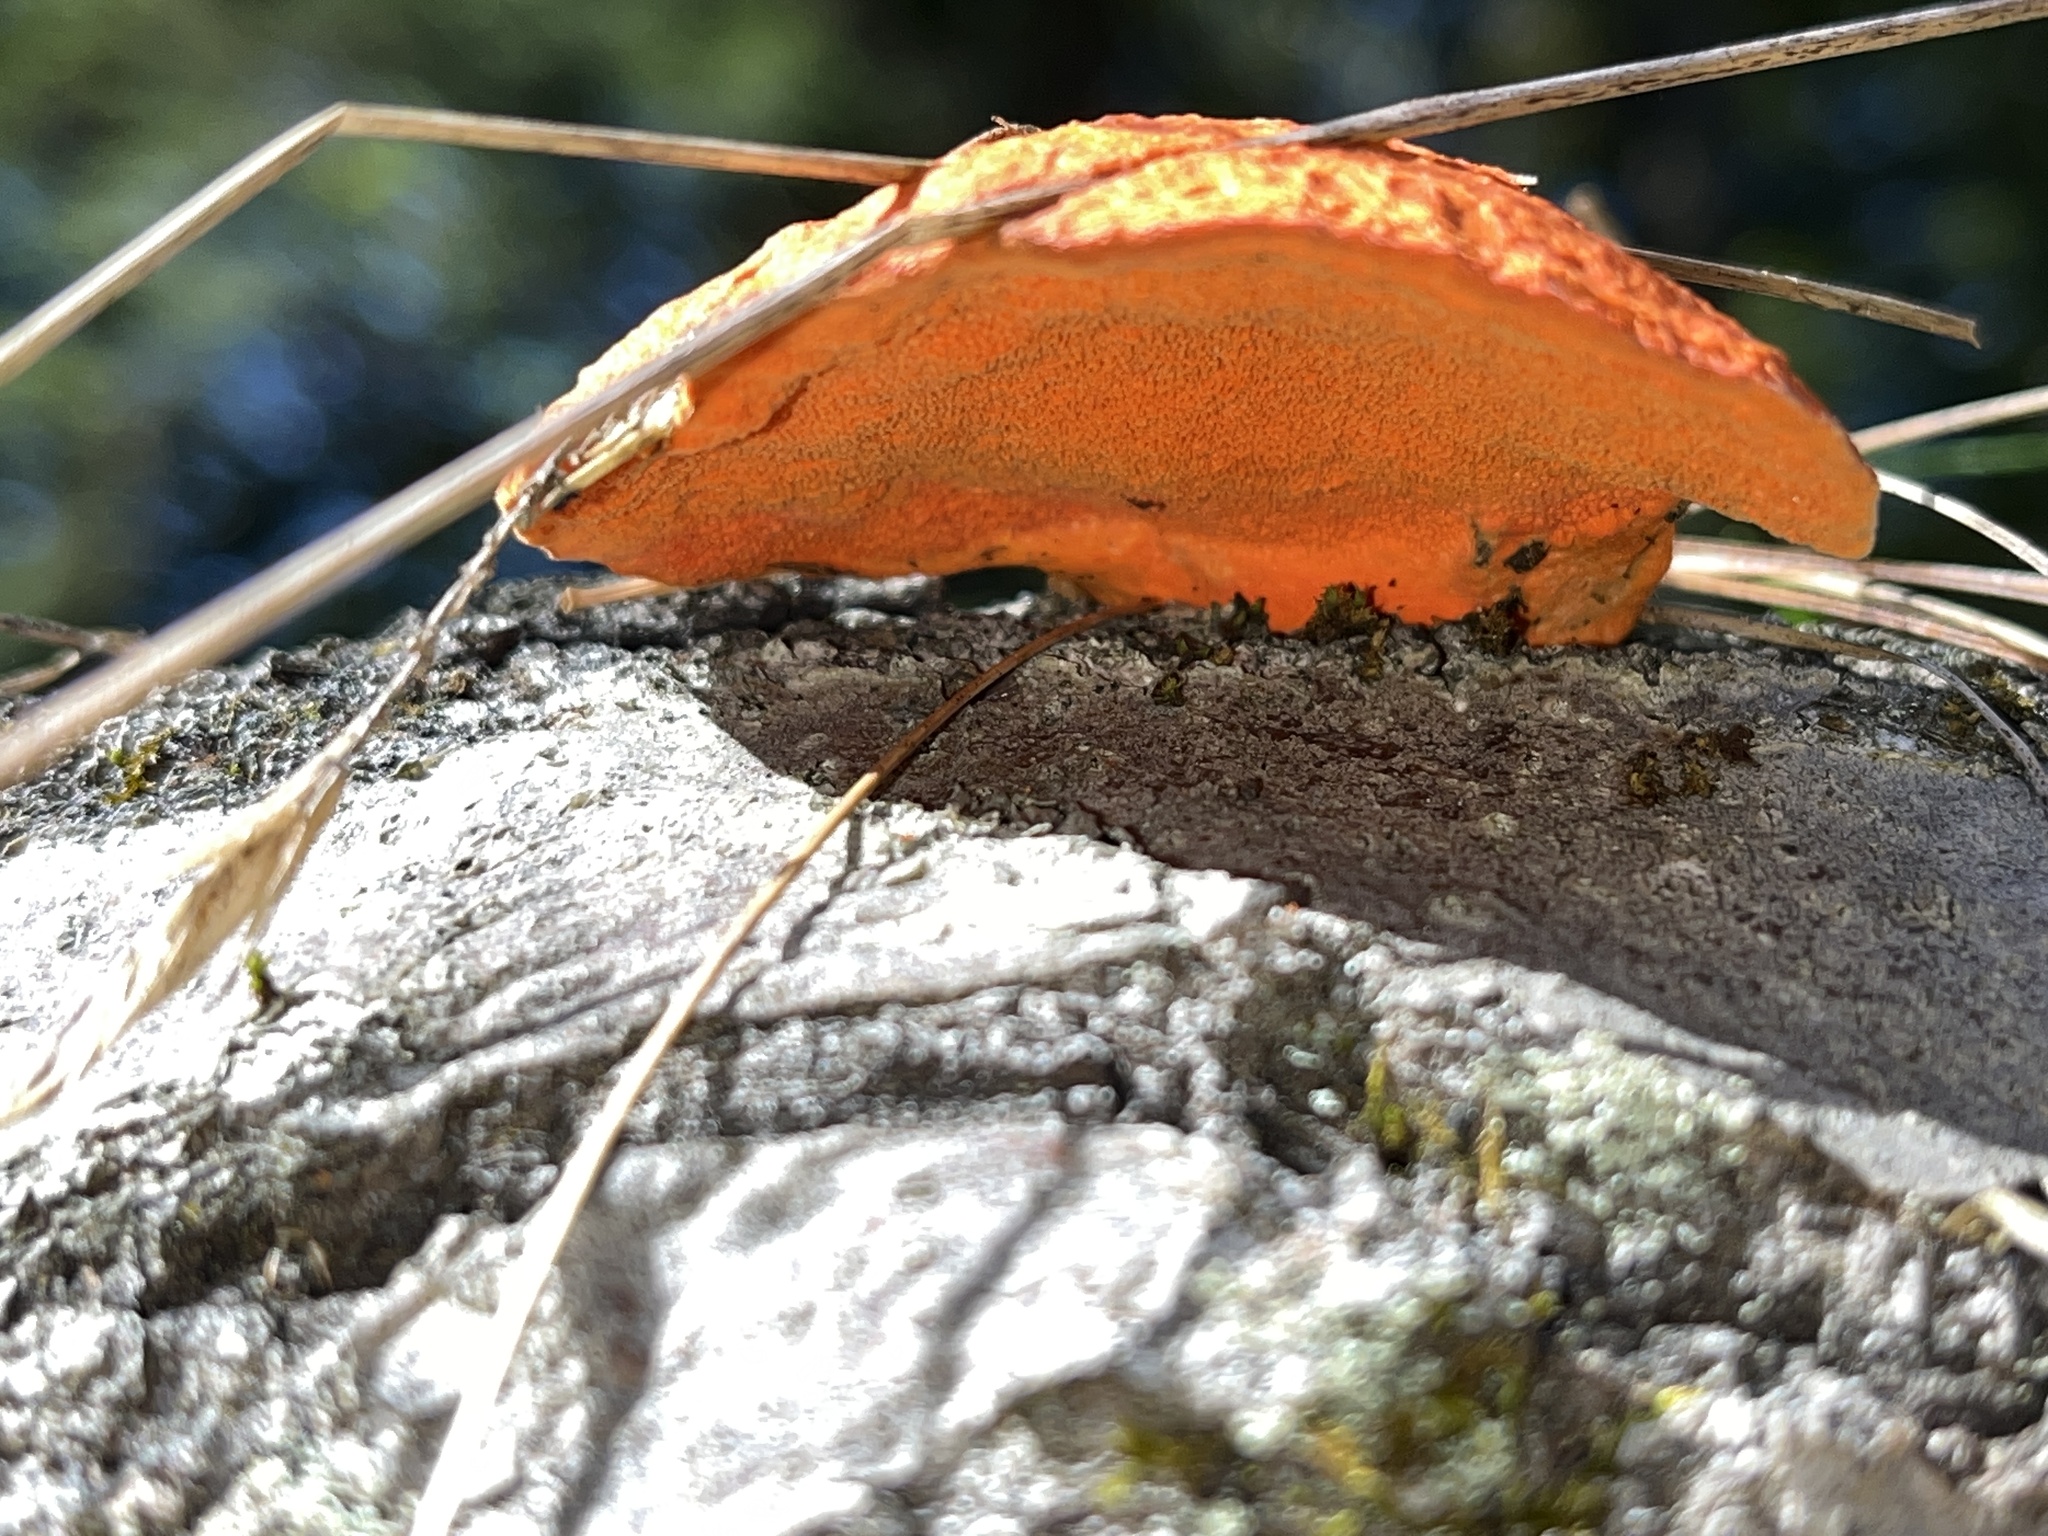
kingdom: Fungi
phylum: Basidiomycota
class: Agaricomycetes
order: Polyporales
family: Polyporaceae
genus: Trametes
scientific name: Trametes cinnabarina
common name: Northern cinnabar polypore
